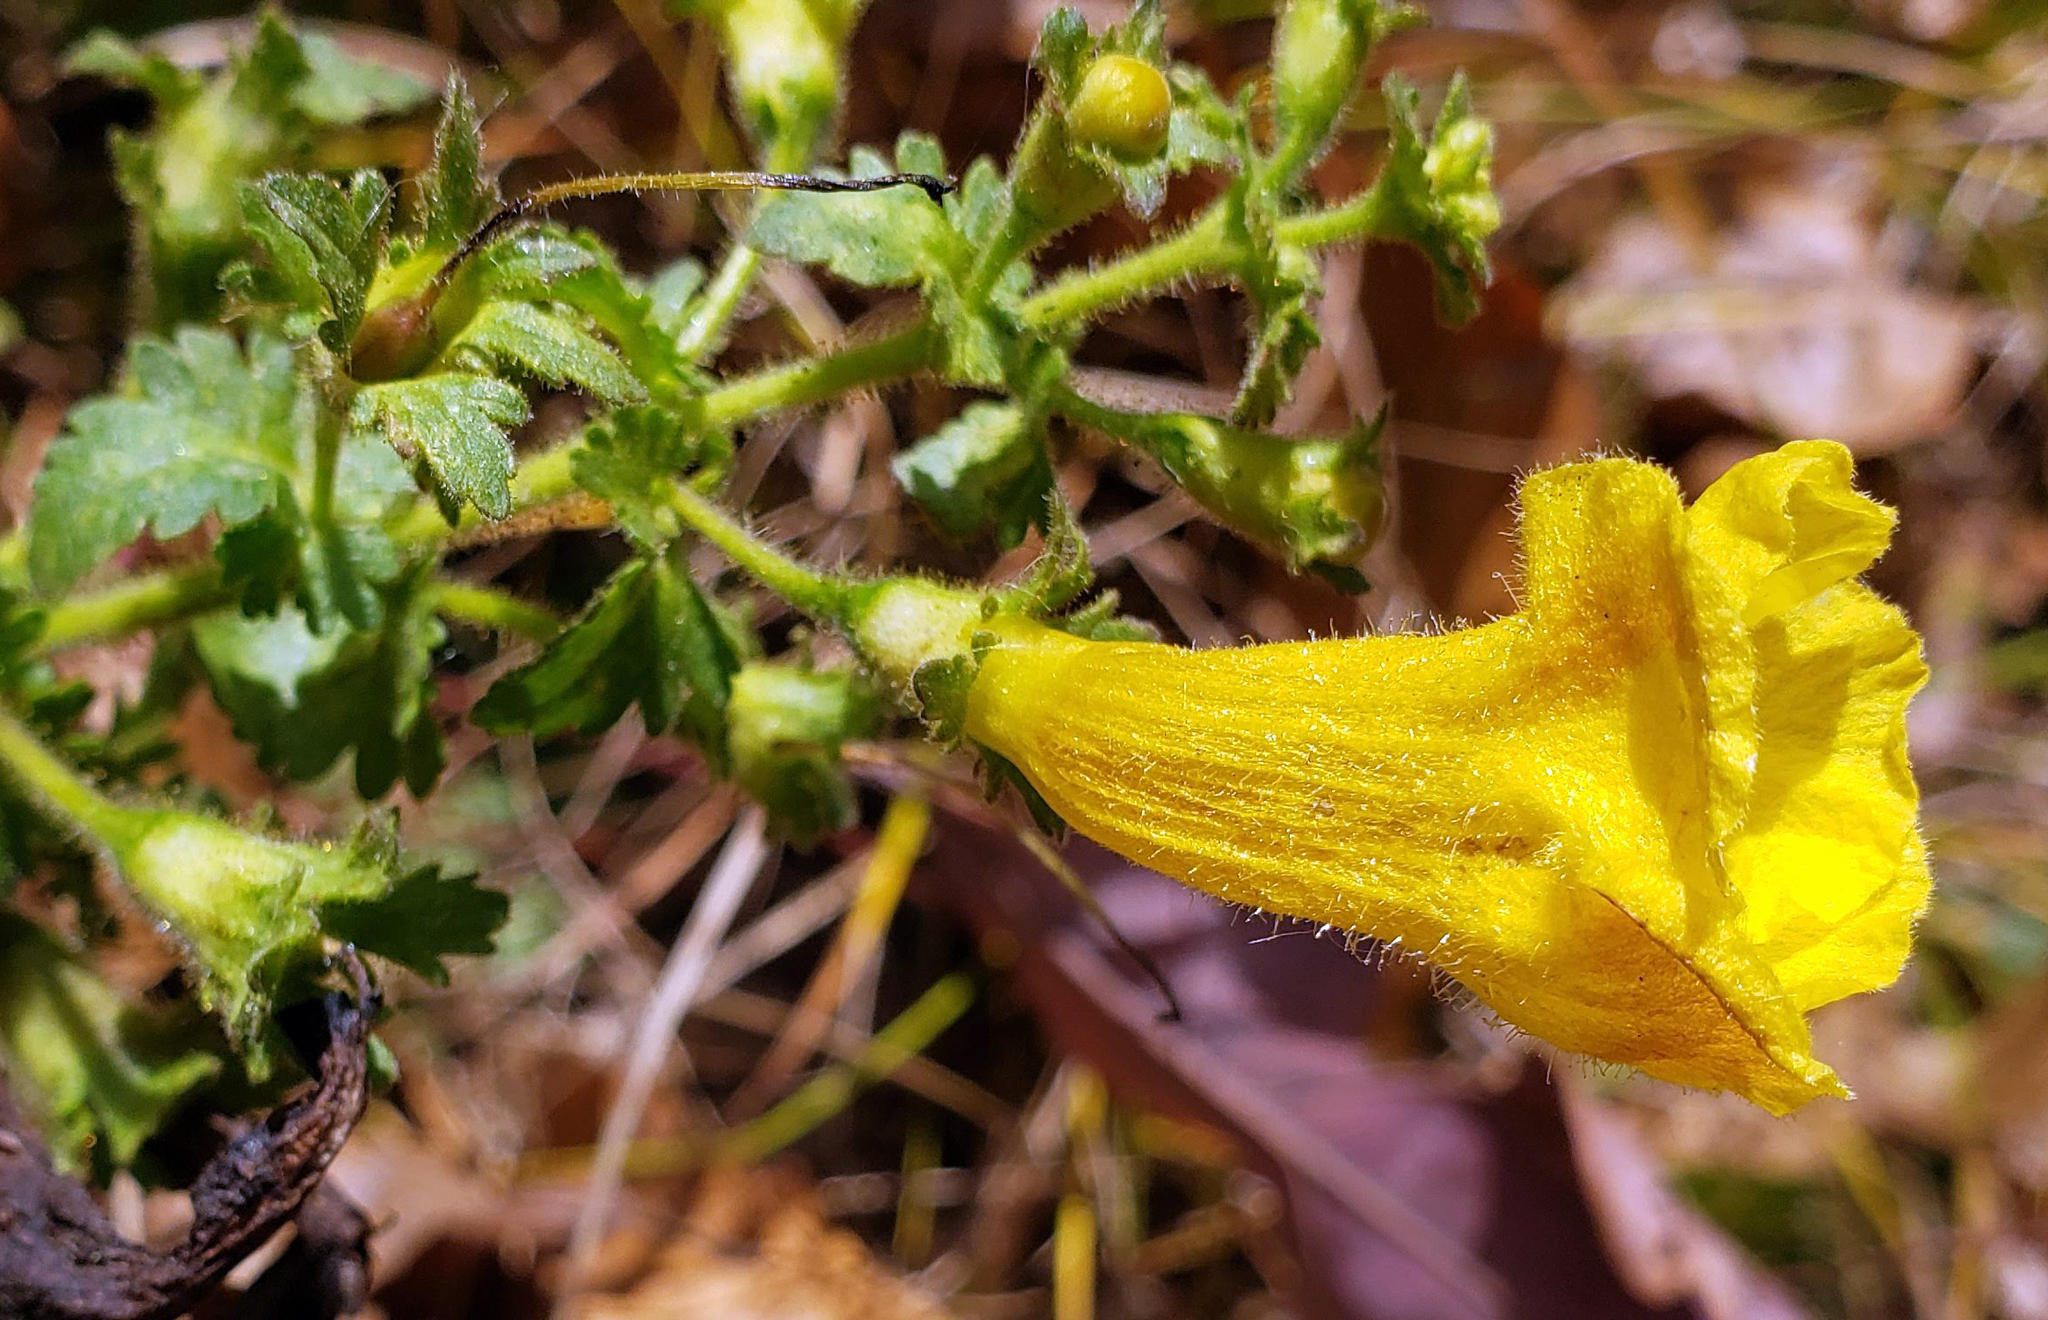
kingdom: Plantae
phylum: Tracheophyta
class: Magnoliopsida
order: Lamiales
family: Orobanchaceae
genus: Aureolaria
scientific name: Aureolaria pedicularia
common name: Annual false foxglove
